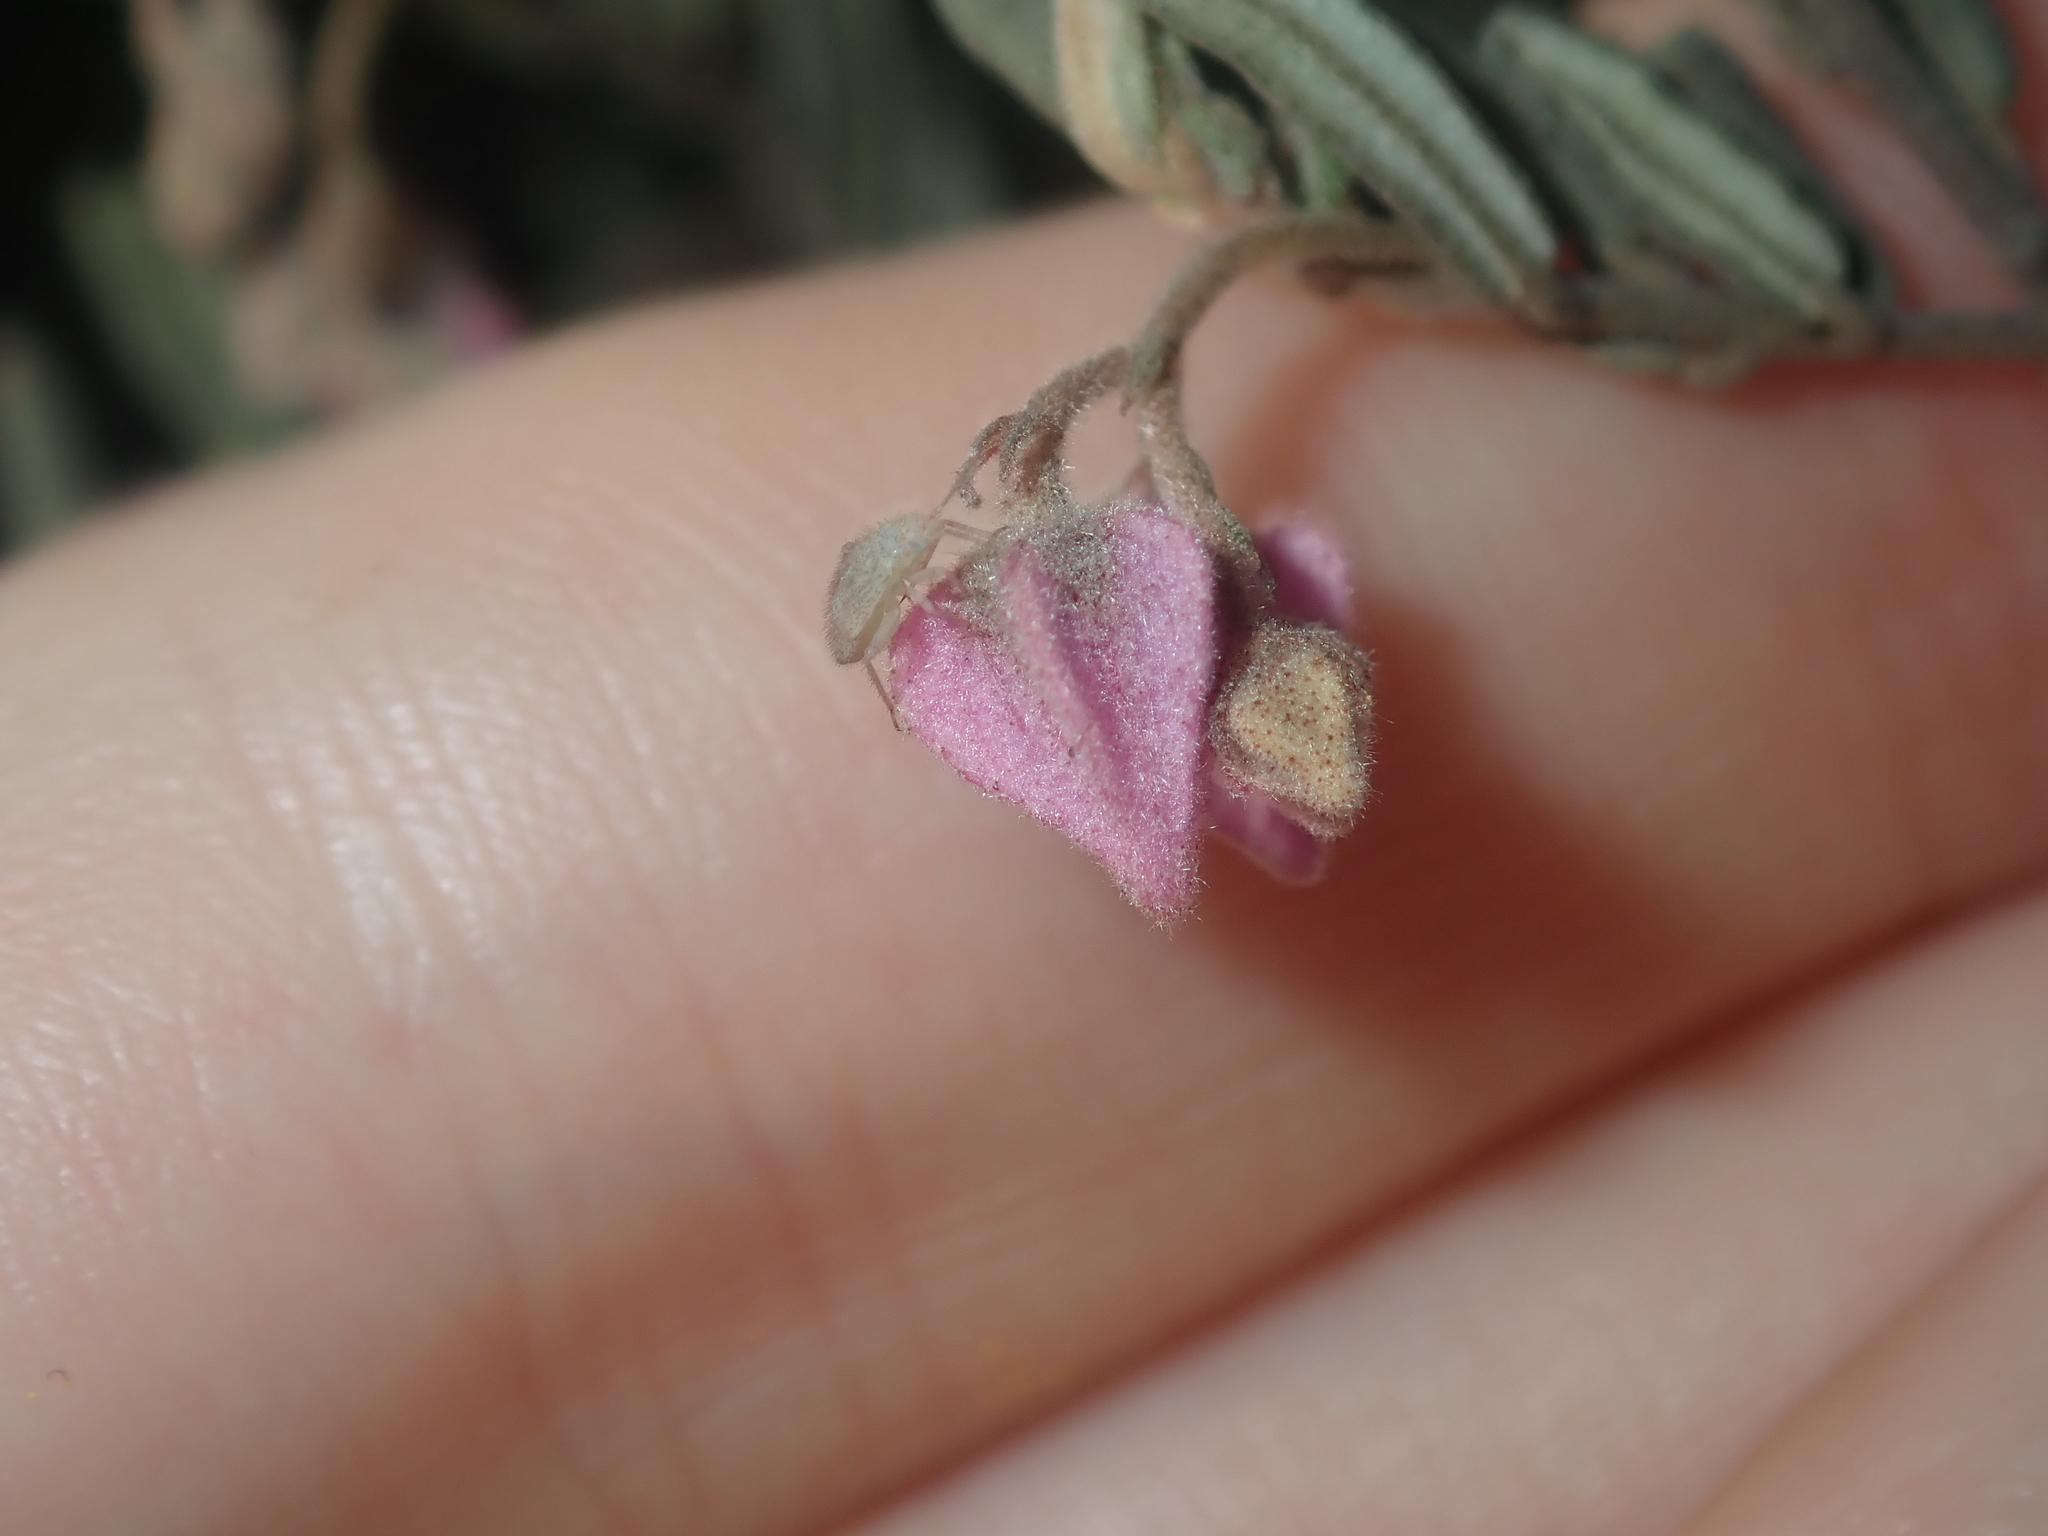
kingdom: Plantae
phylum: Tracheophyta
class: Magnoliopsida
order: Malvales
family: Malvaceae
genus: Guichenotia
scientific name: Guichenotia basivirida
